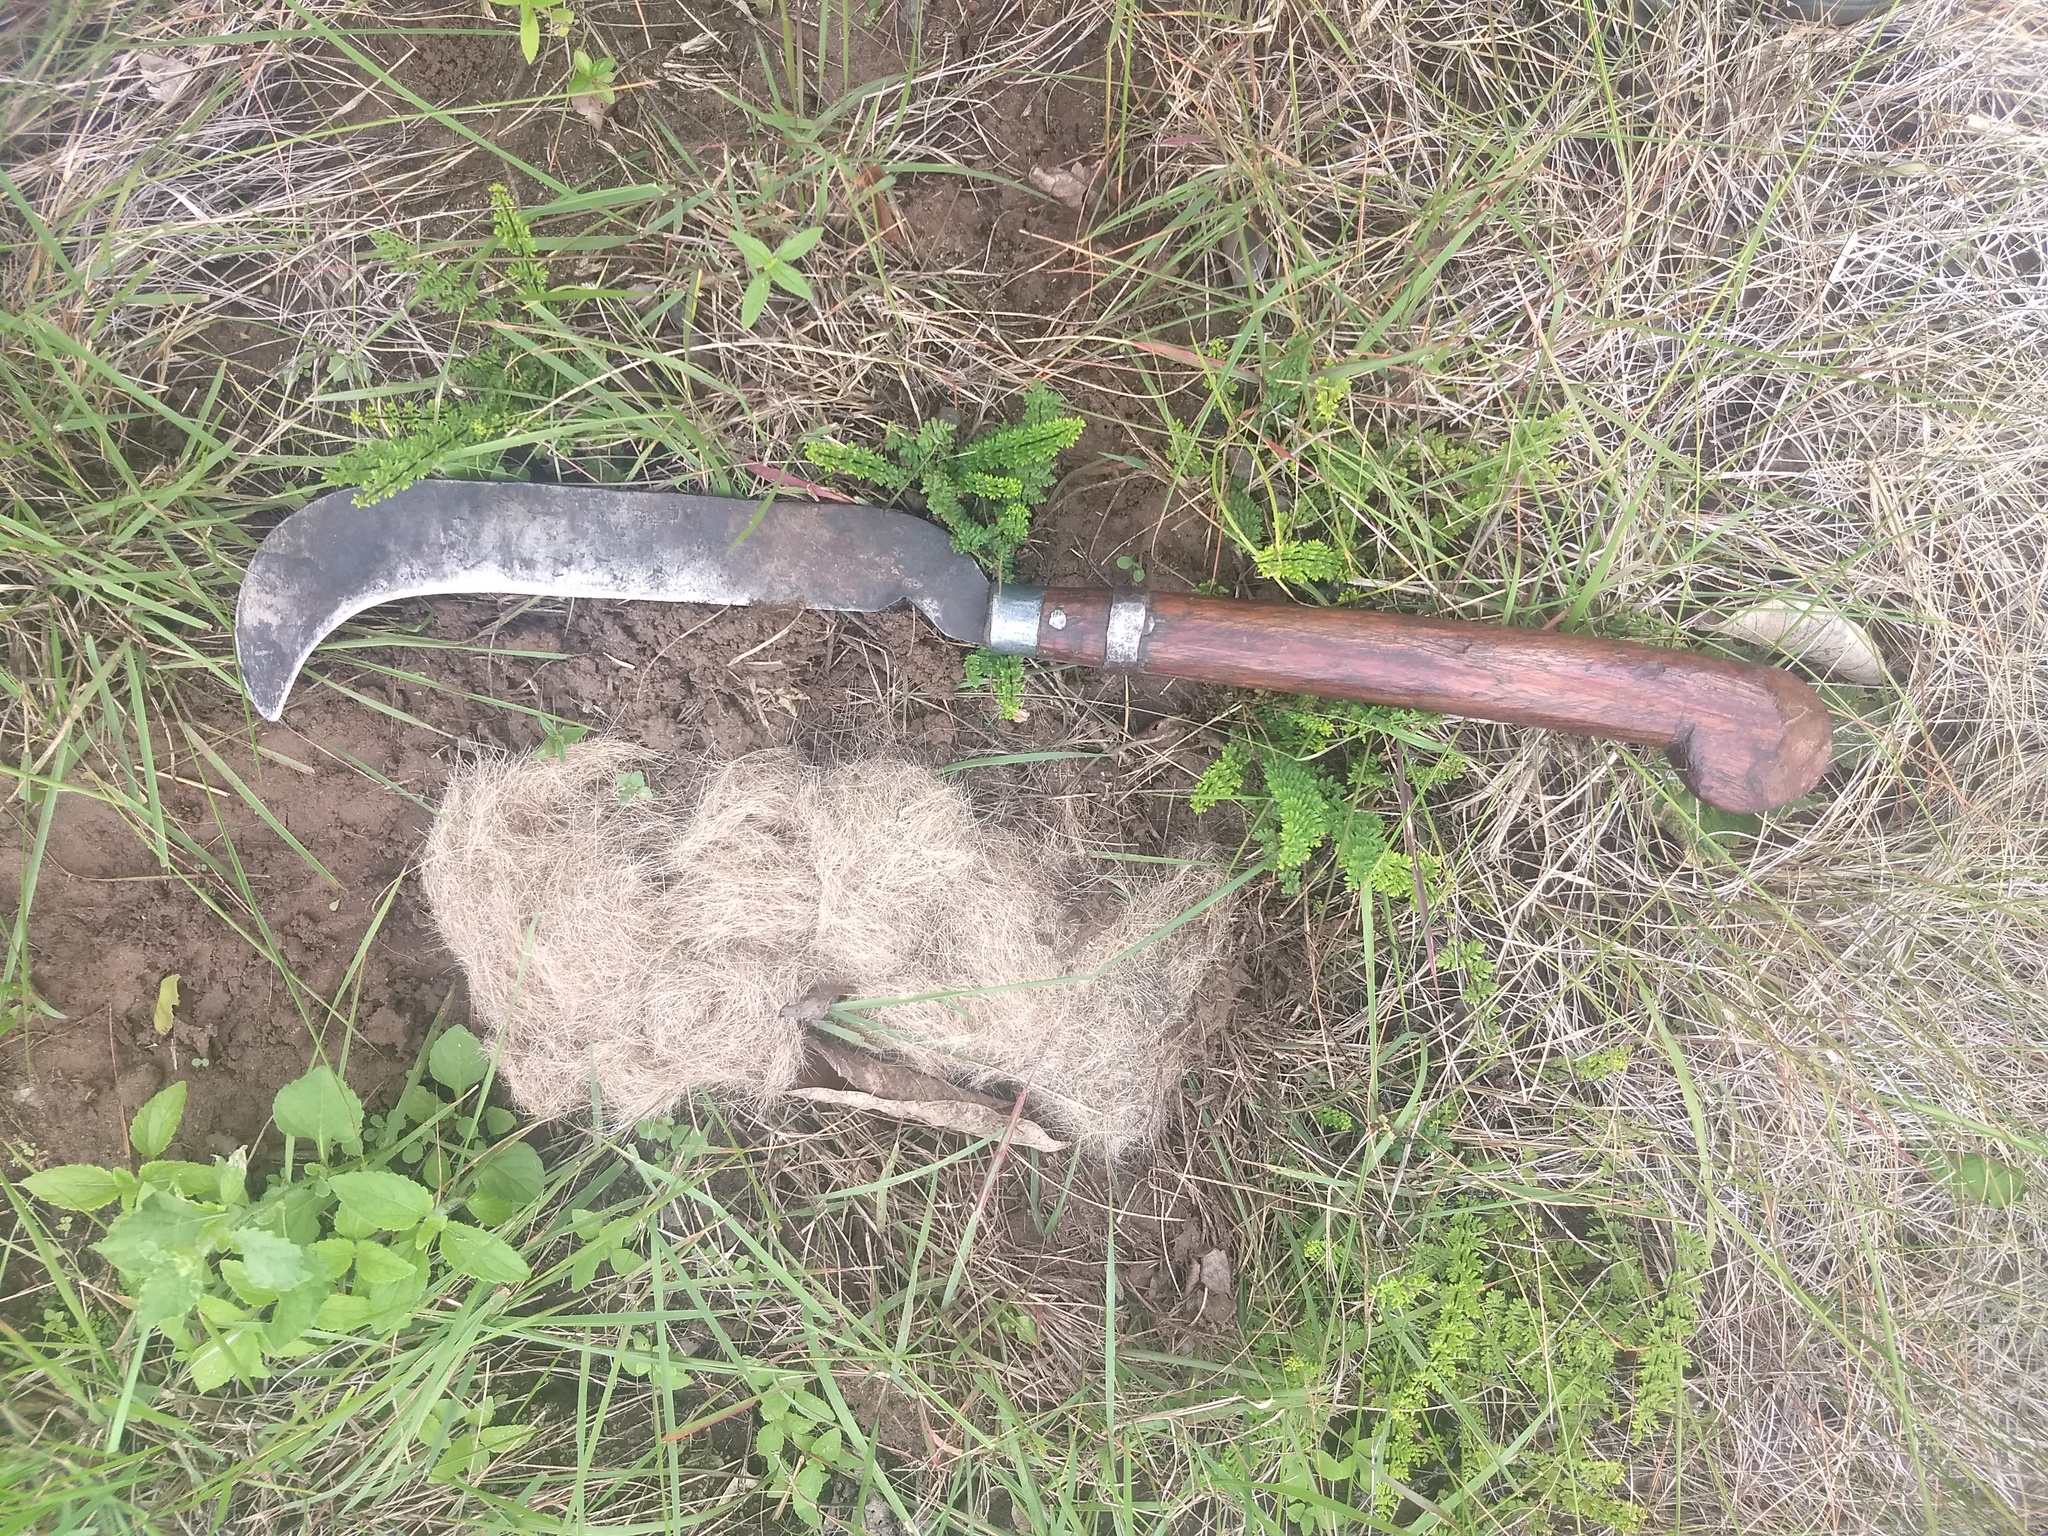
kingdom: Animalia
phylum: Chordata
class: Mammalia
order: Carnivora
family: Felidae
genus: Panthera
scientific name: Panthera pardus
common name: Leopard
